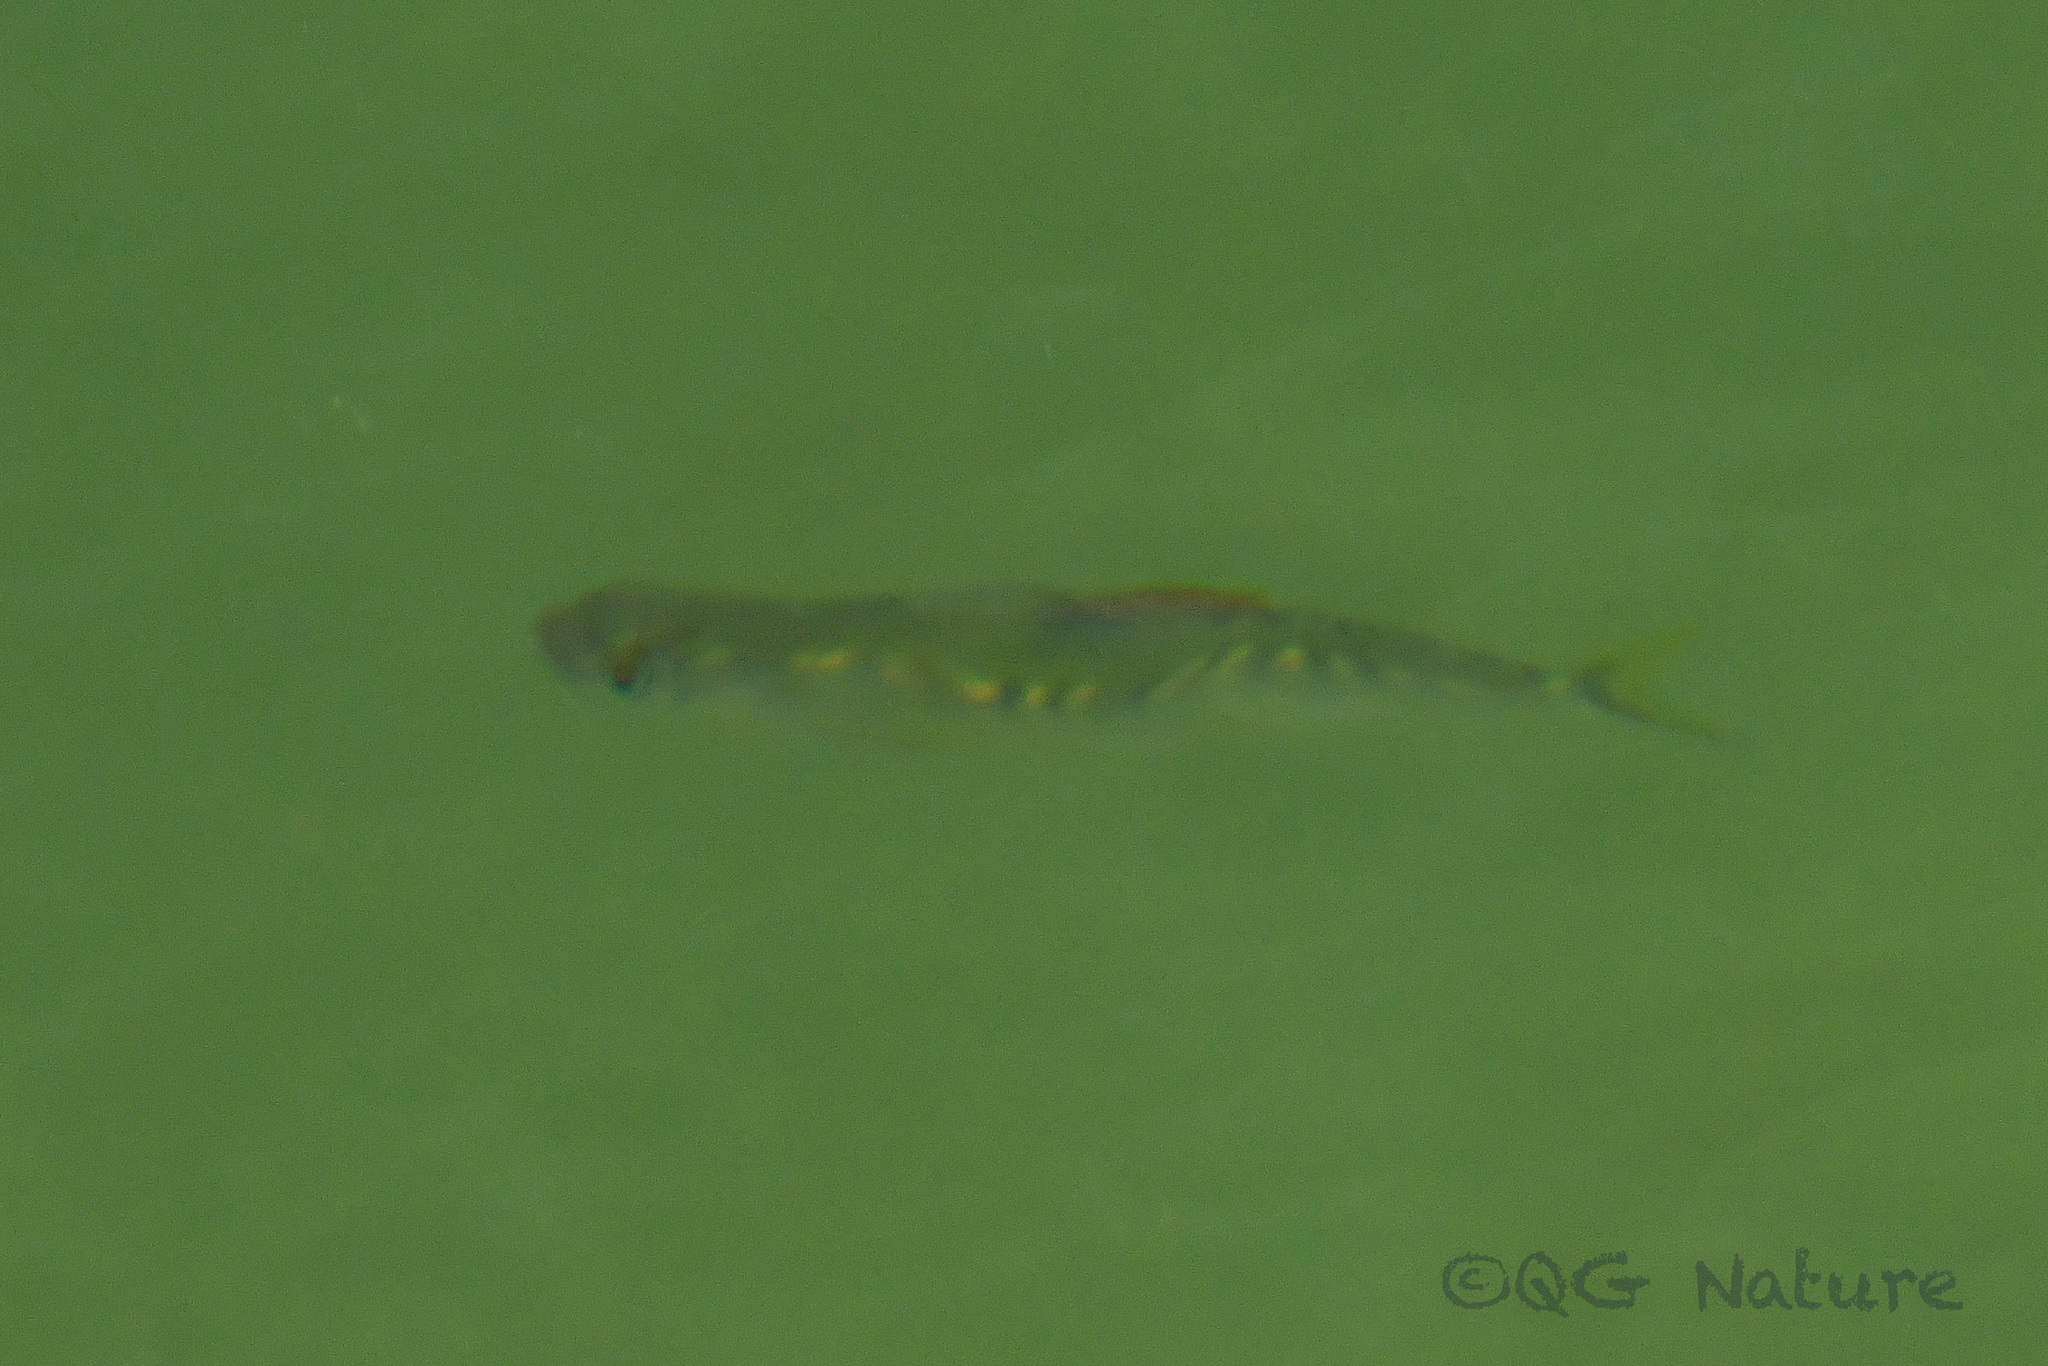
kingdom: Animalia
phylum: Chordata
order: Cypriniformes
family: Cyprinidae
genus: Opsariichthys
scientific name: Opsariichthys evolans
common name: Freshwater minnow
